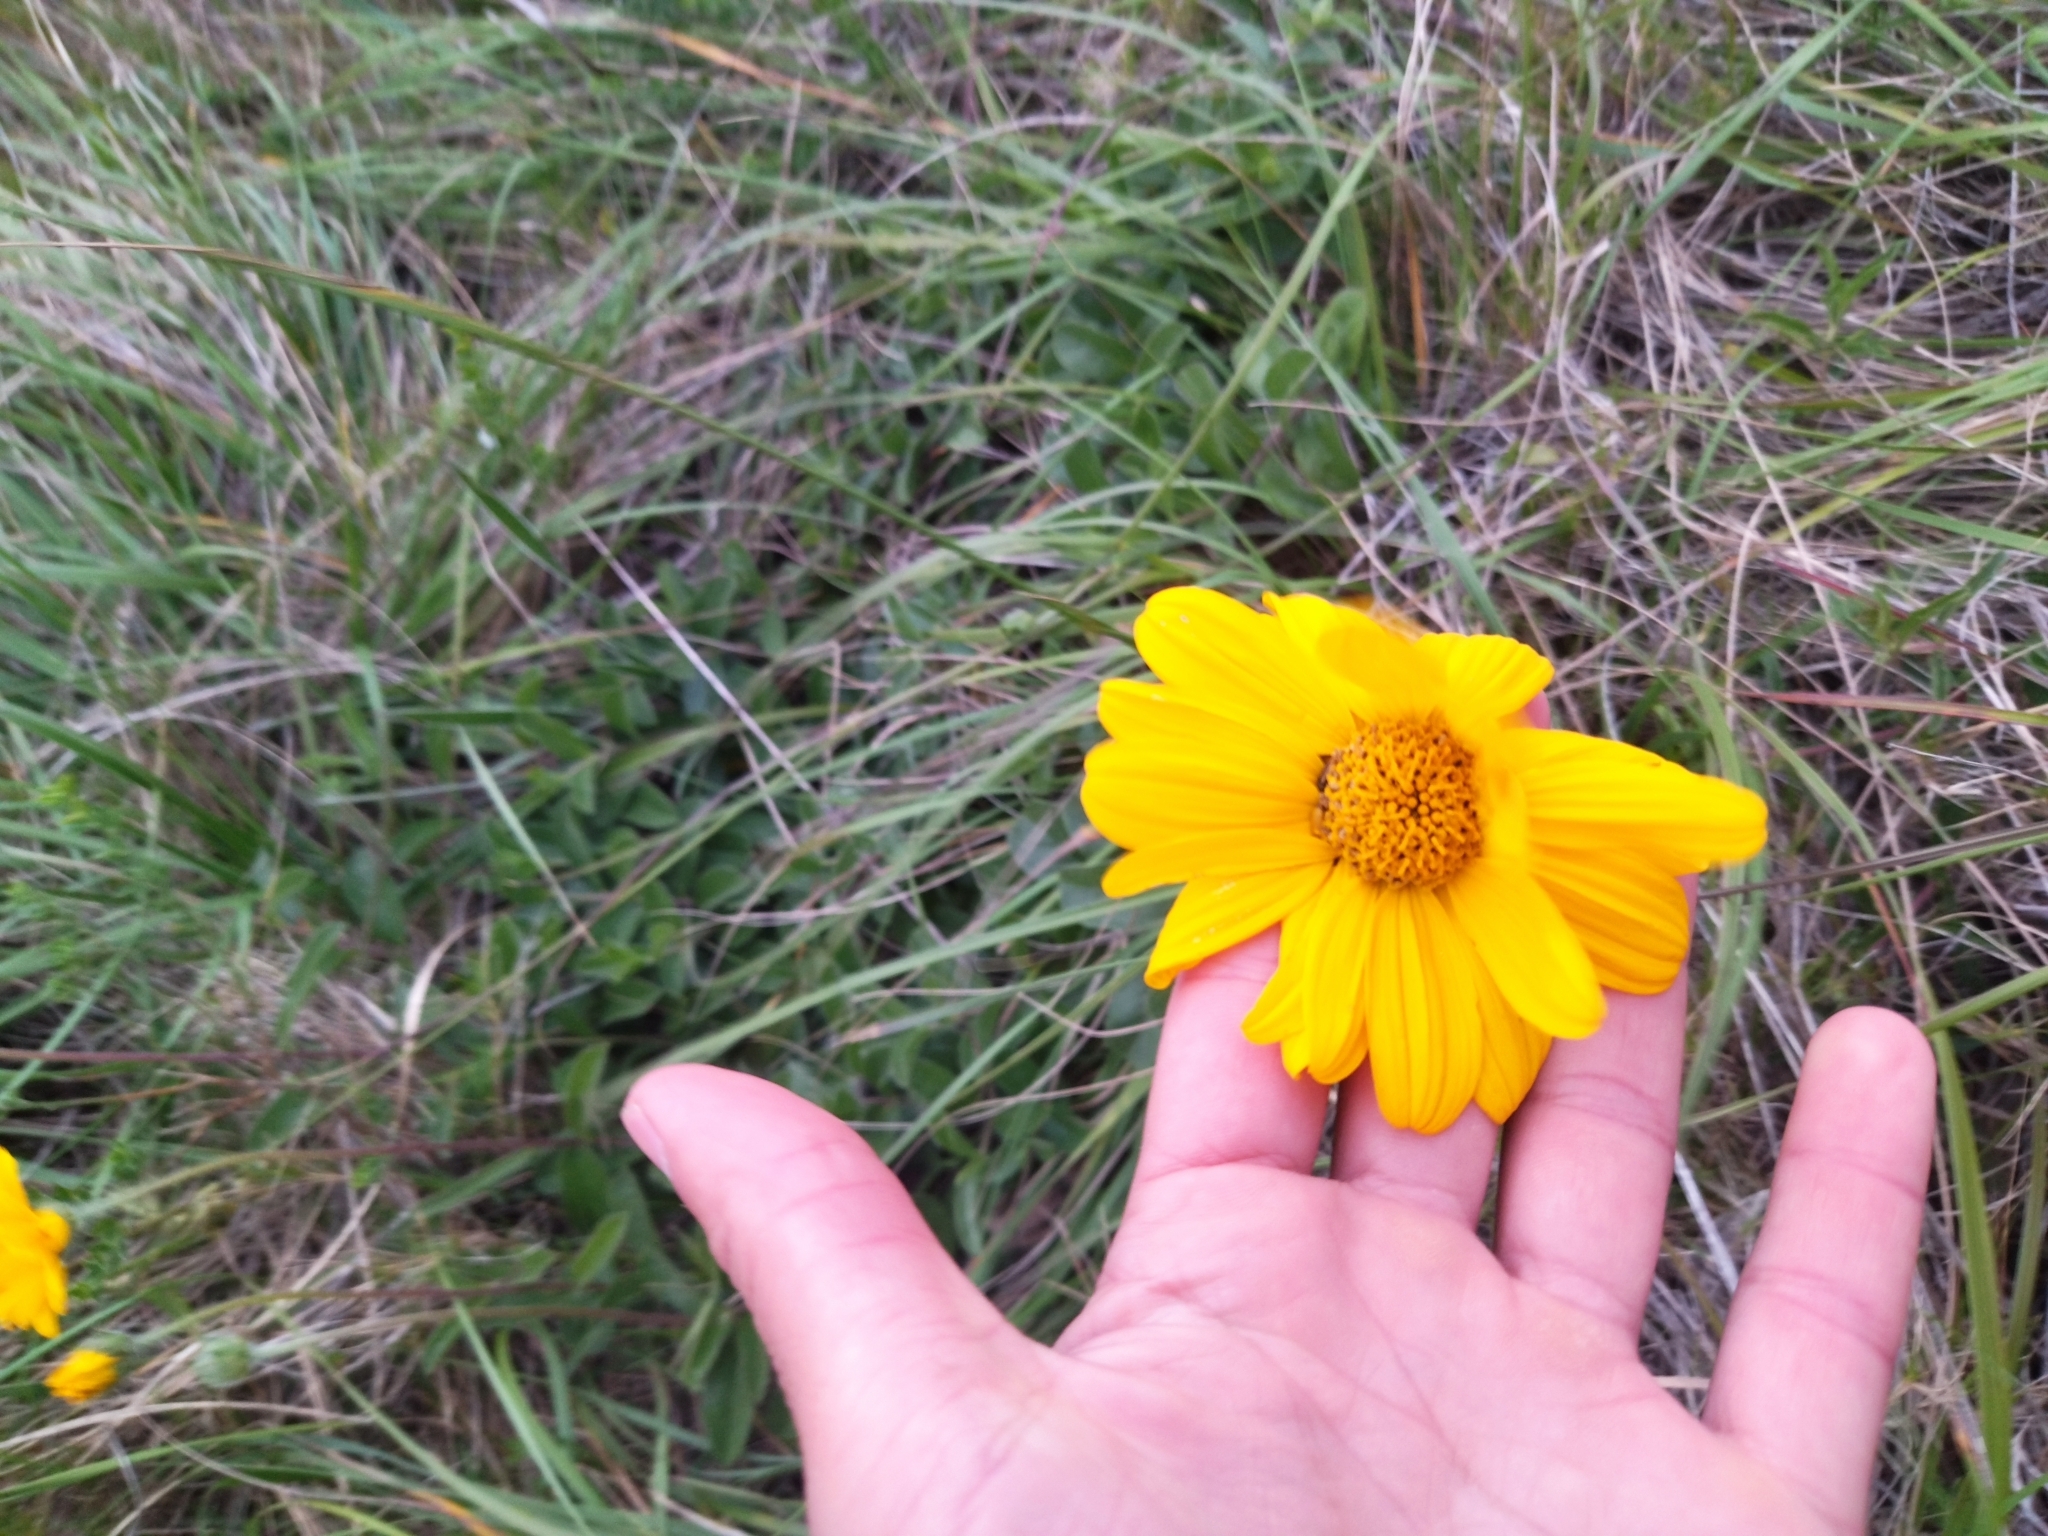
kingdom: Plantae
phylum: Tracheophyta
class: Magnoliopsida
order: Asterales
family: Asteraceae
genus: Aldama
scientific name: Aldama nudicaulis
